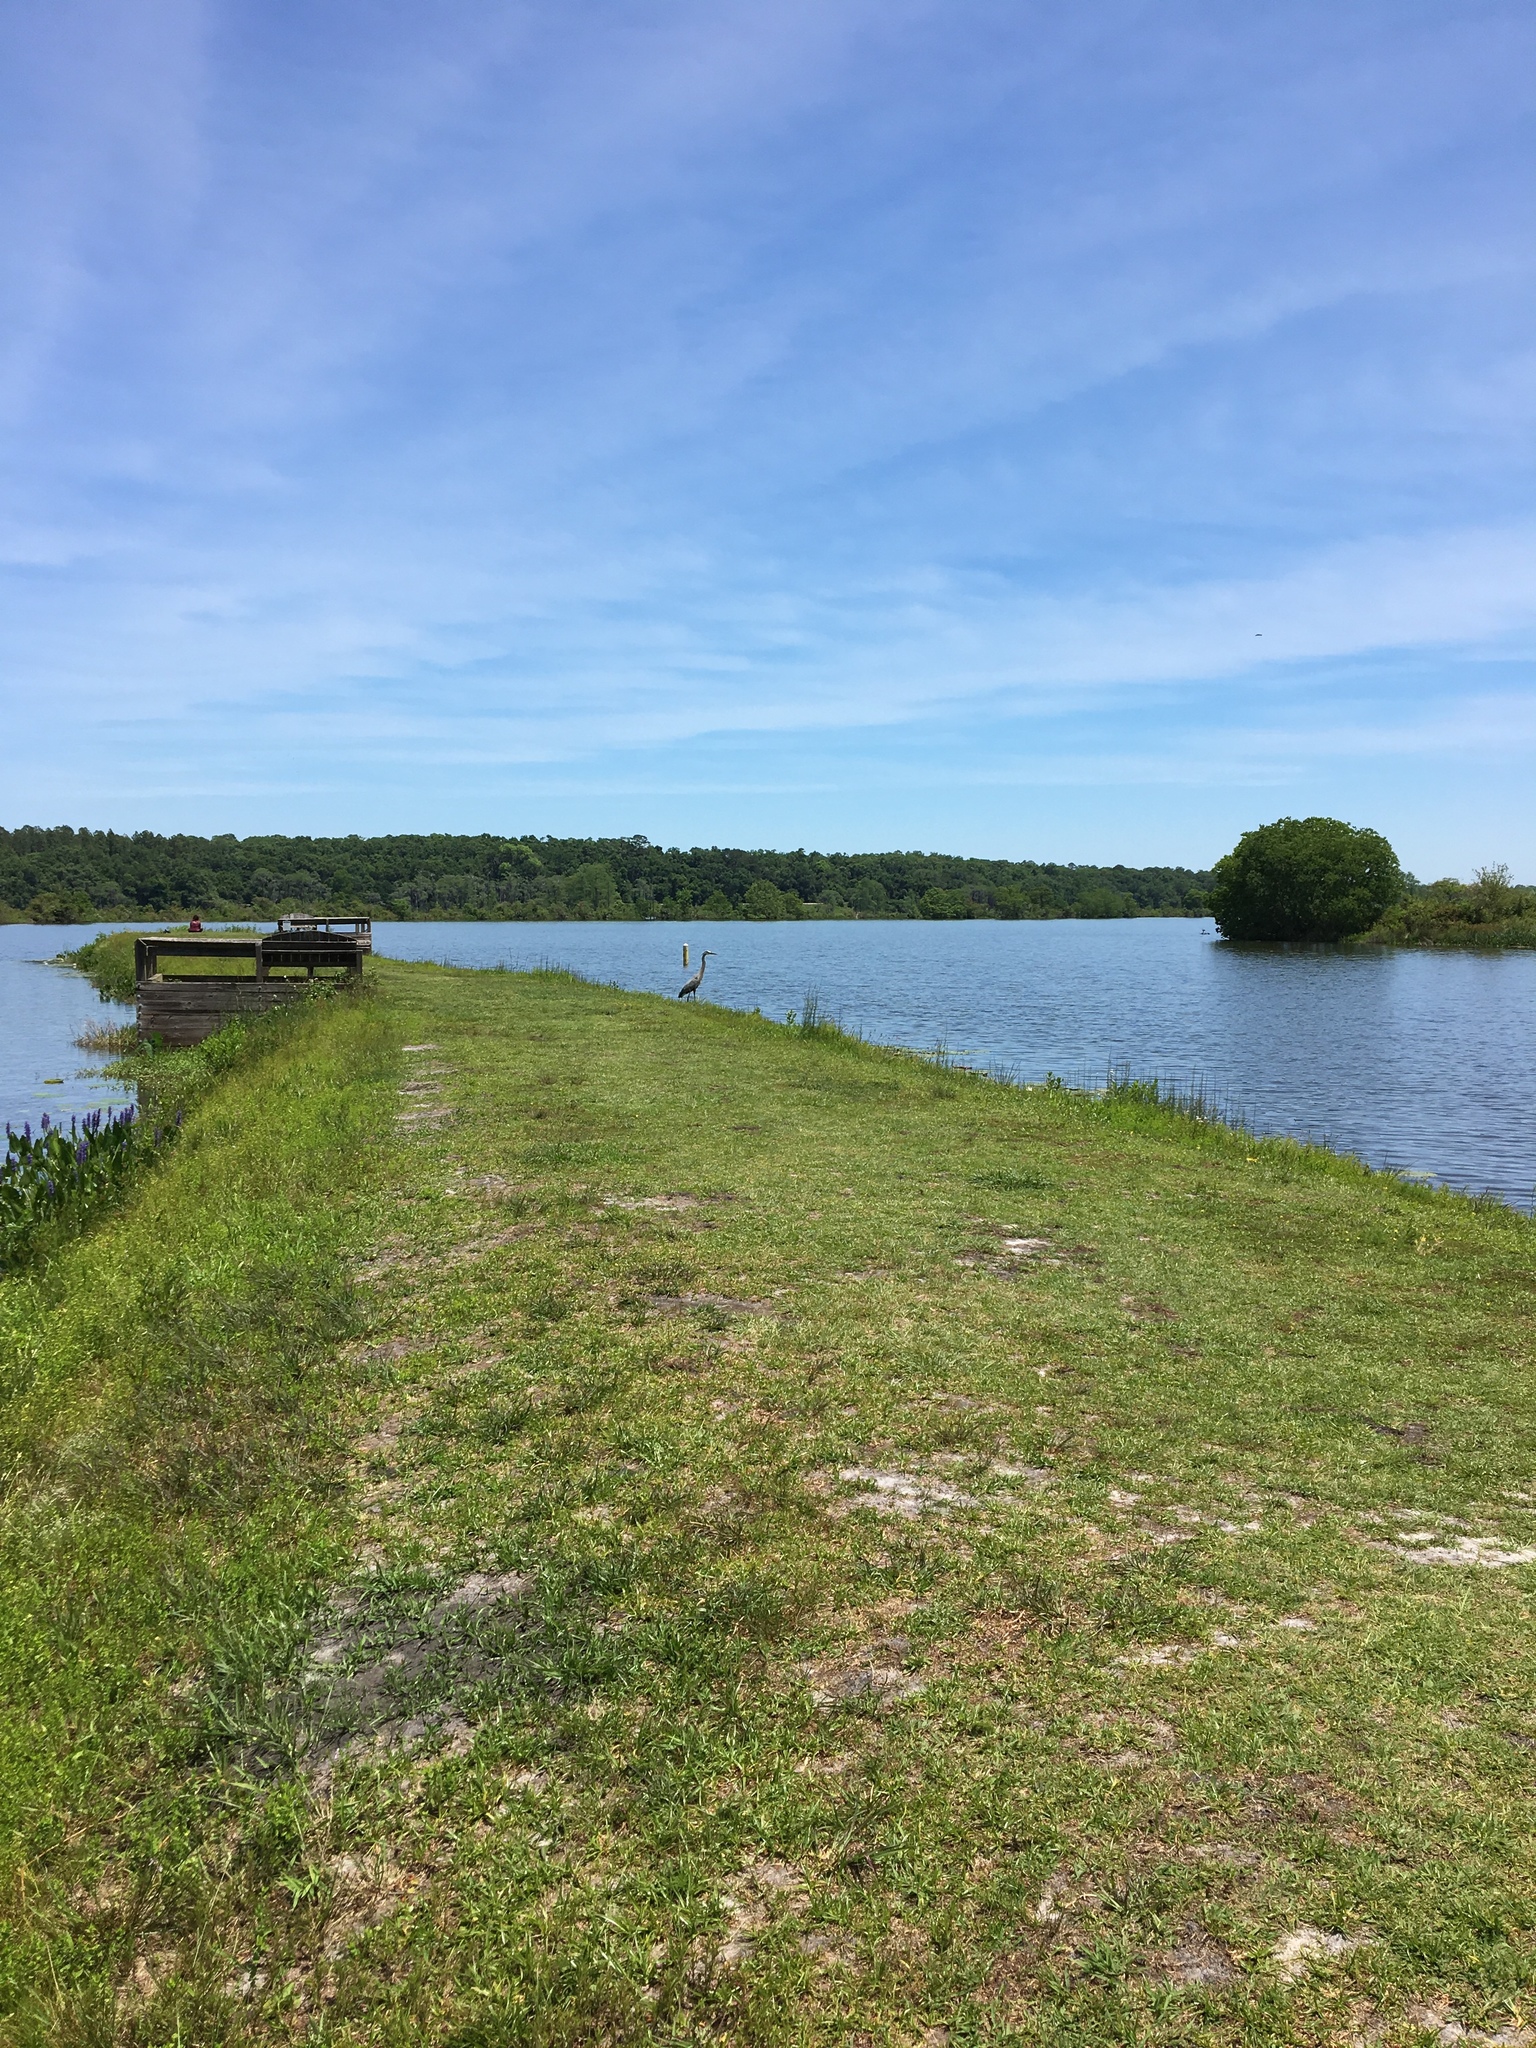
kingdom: Animalia
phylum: Chordata
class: Aves
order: Pelecaniformes
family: Ardeidae
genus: Ardea
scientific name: Ardea herodias
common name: Great blue heron
